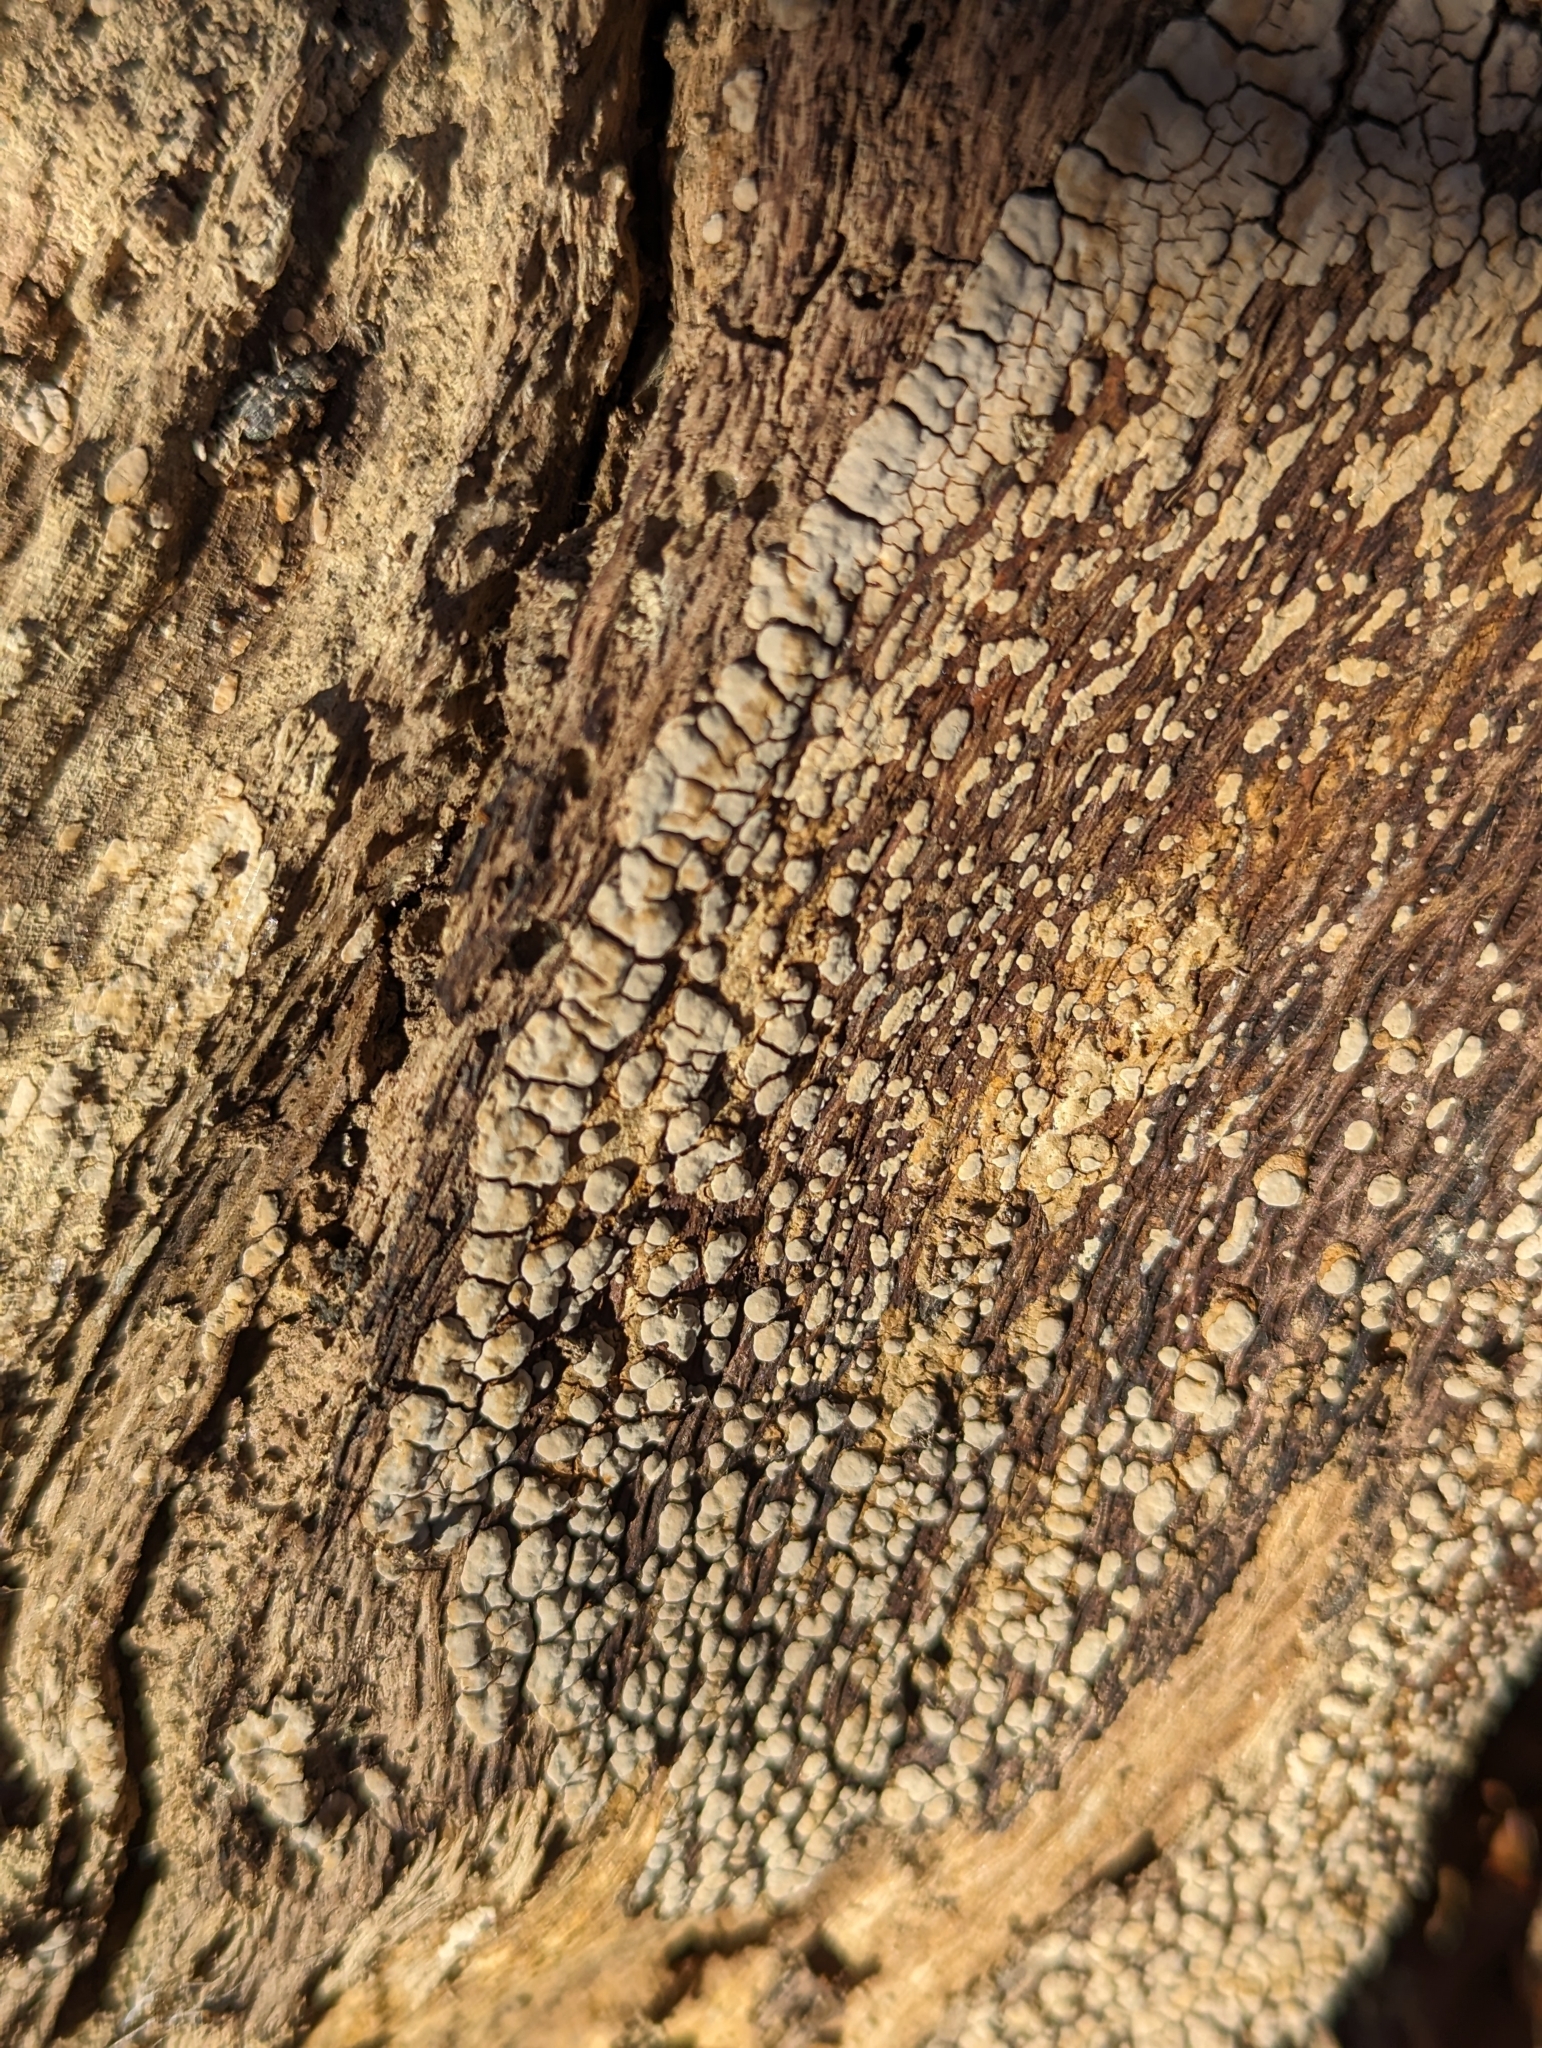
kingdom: Fungi
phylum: Basidiomycota
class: Agaricomycetes
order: Russulales
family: Stereaceae
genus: Xylobolus
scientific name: Xylobolus frustulatus
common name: Ceramic parchment
